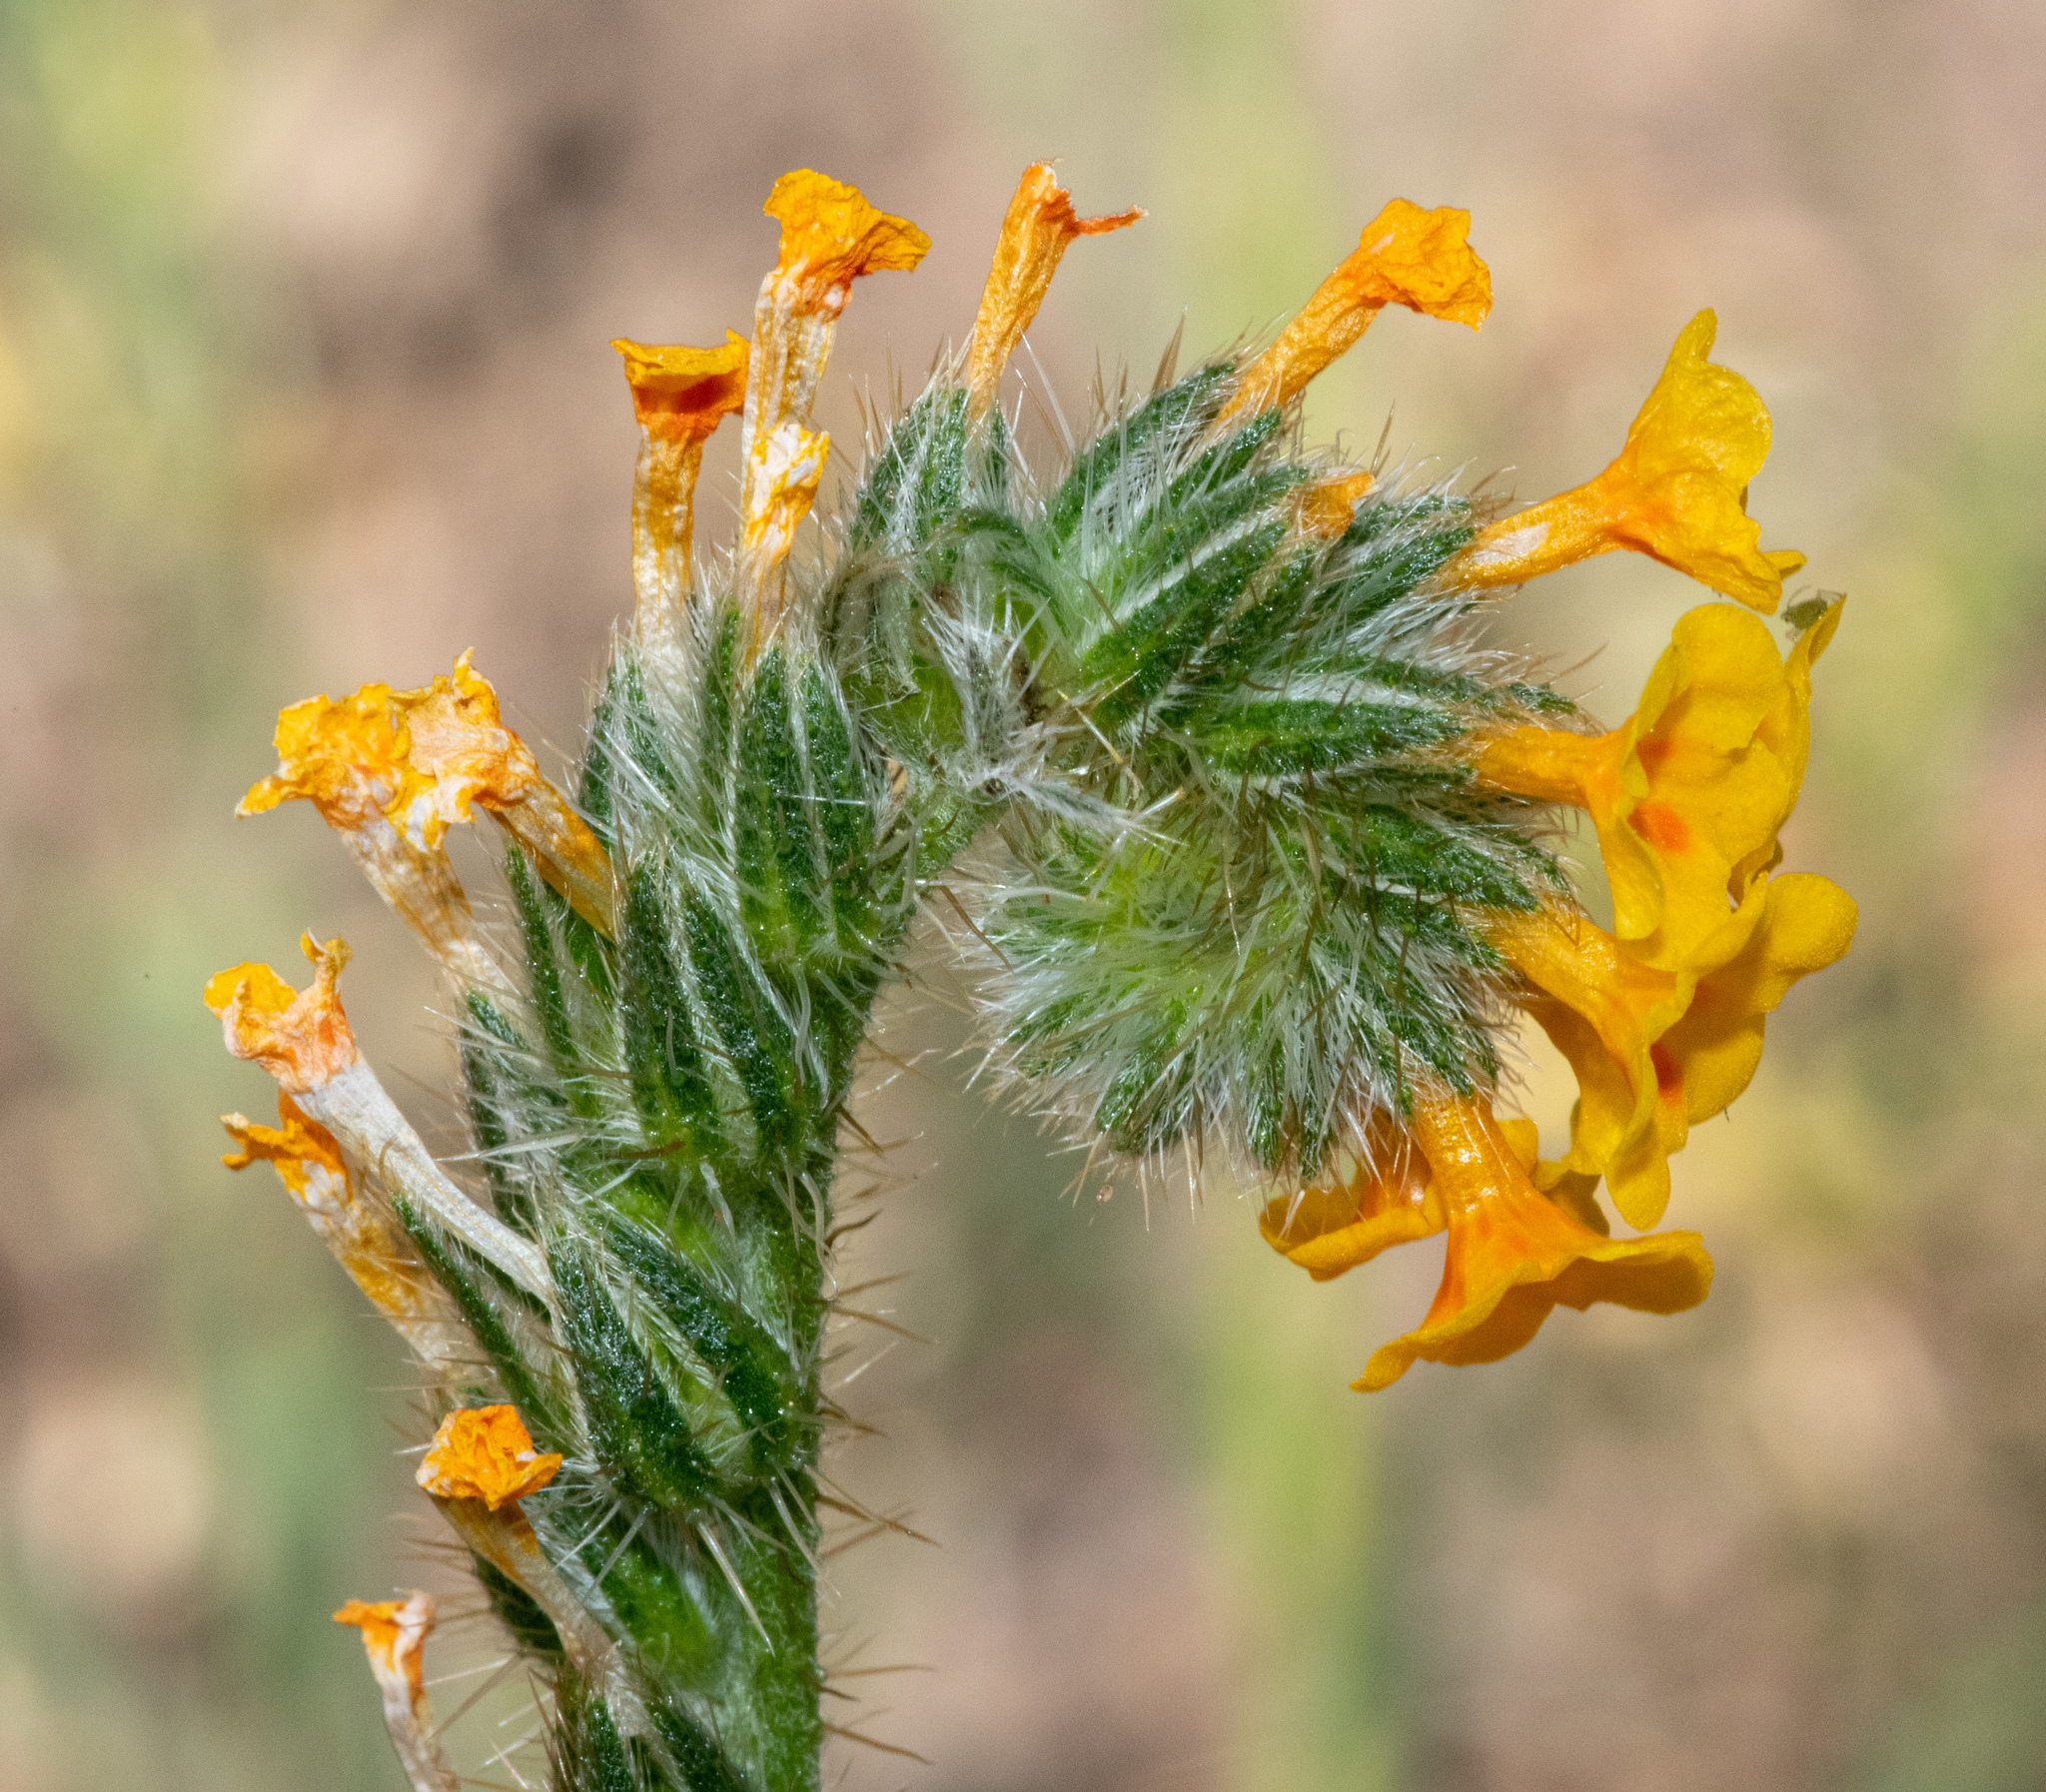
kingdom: Plantae
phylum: Tracheophyta
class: Magnoliopsida
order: Boraginales
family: Boraginaceae
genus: Amsinckia
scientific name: Amsinckia menziesii
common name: Menzies' fiddleneck
